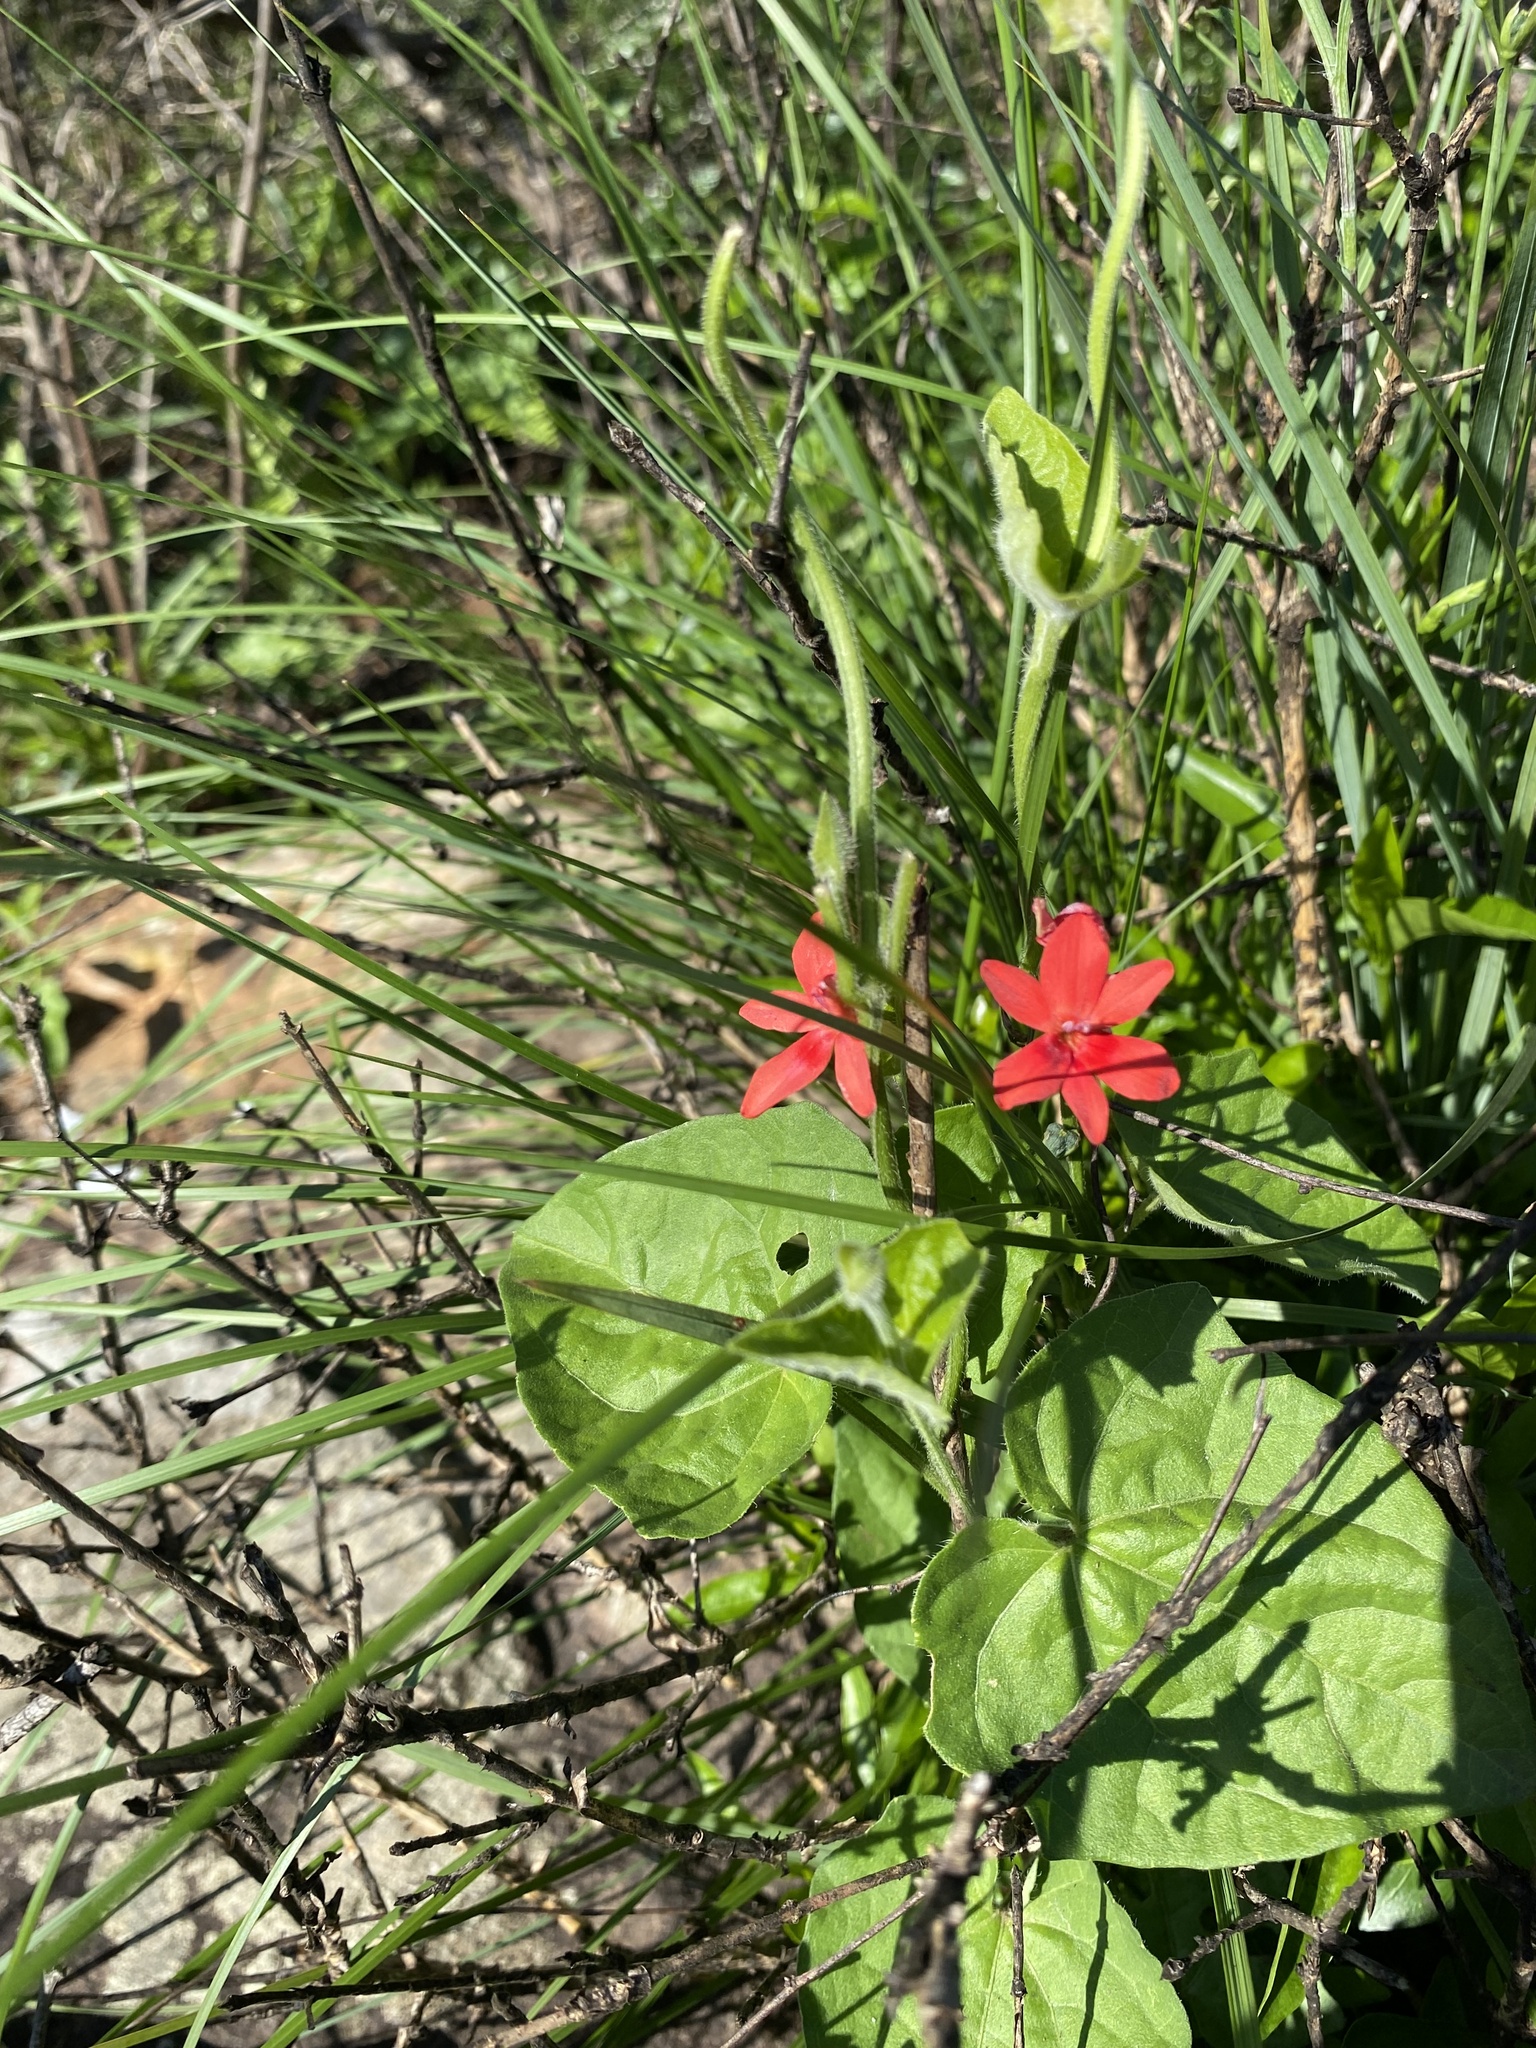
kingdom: Plantae
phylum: Tracheophyta
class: Liliopsida
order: Asparagales
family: Iridaceae
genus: Freesia
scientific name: Freesia laxa
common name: False freesia
